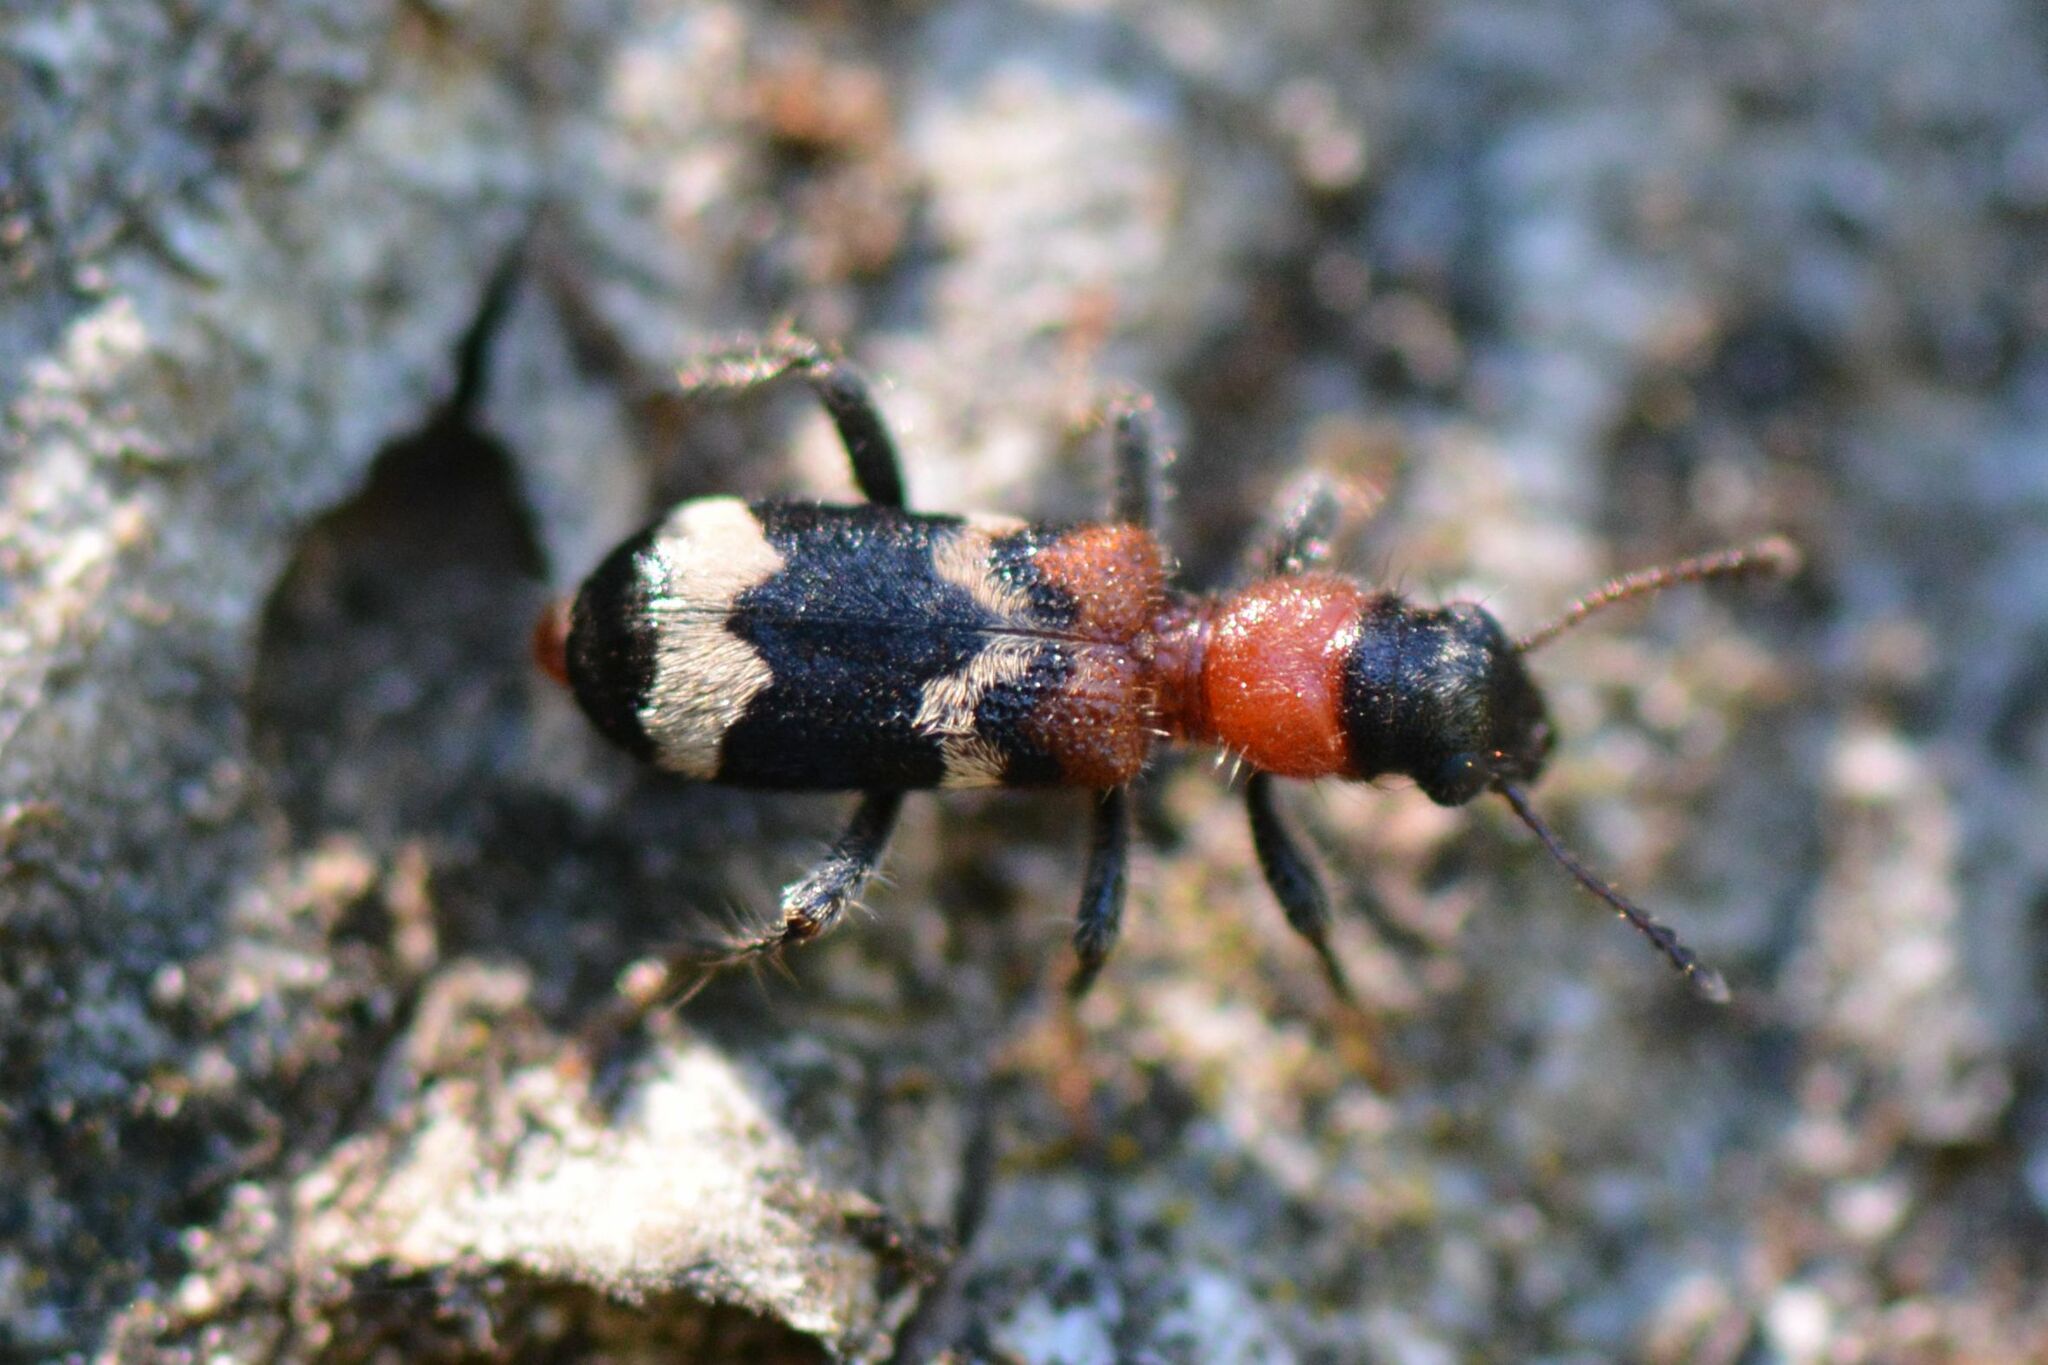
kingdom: Animalia
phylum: Arthropoda
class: Insecta
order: Coleoptera
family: Cleridae
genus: Thanasimus
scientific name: Thanasimus formicarius
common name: Ant beetle
